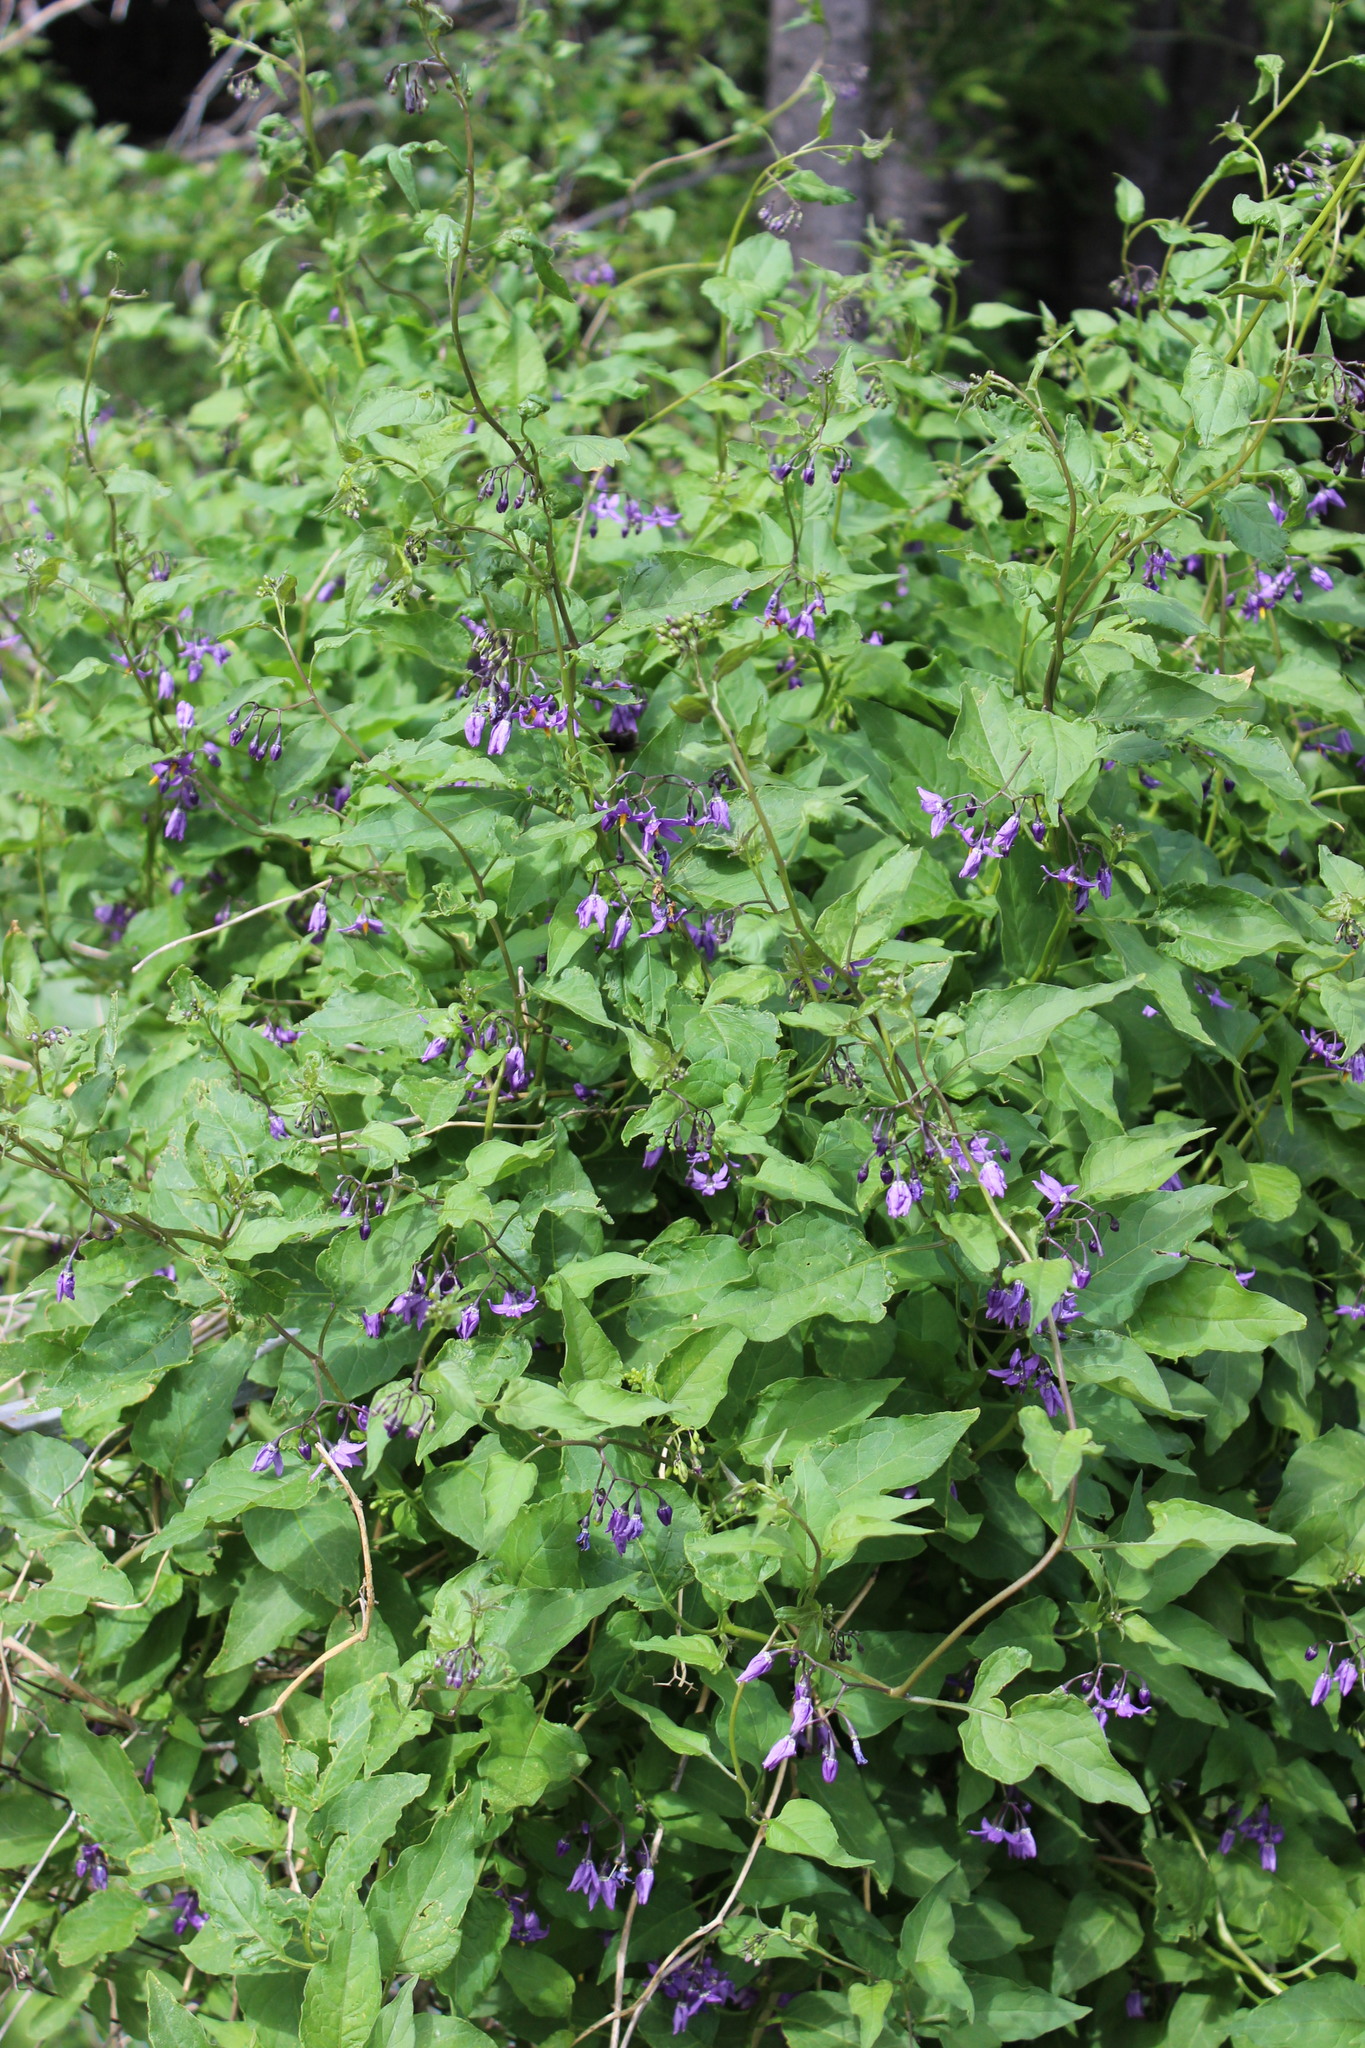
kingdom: Plantae
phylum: Tracheophyta
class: Magnoliopsida
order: Solanales
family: Solanaceae
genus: Solanum
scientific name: Solanum dulcamara
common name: Climbing nightshade
